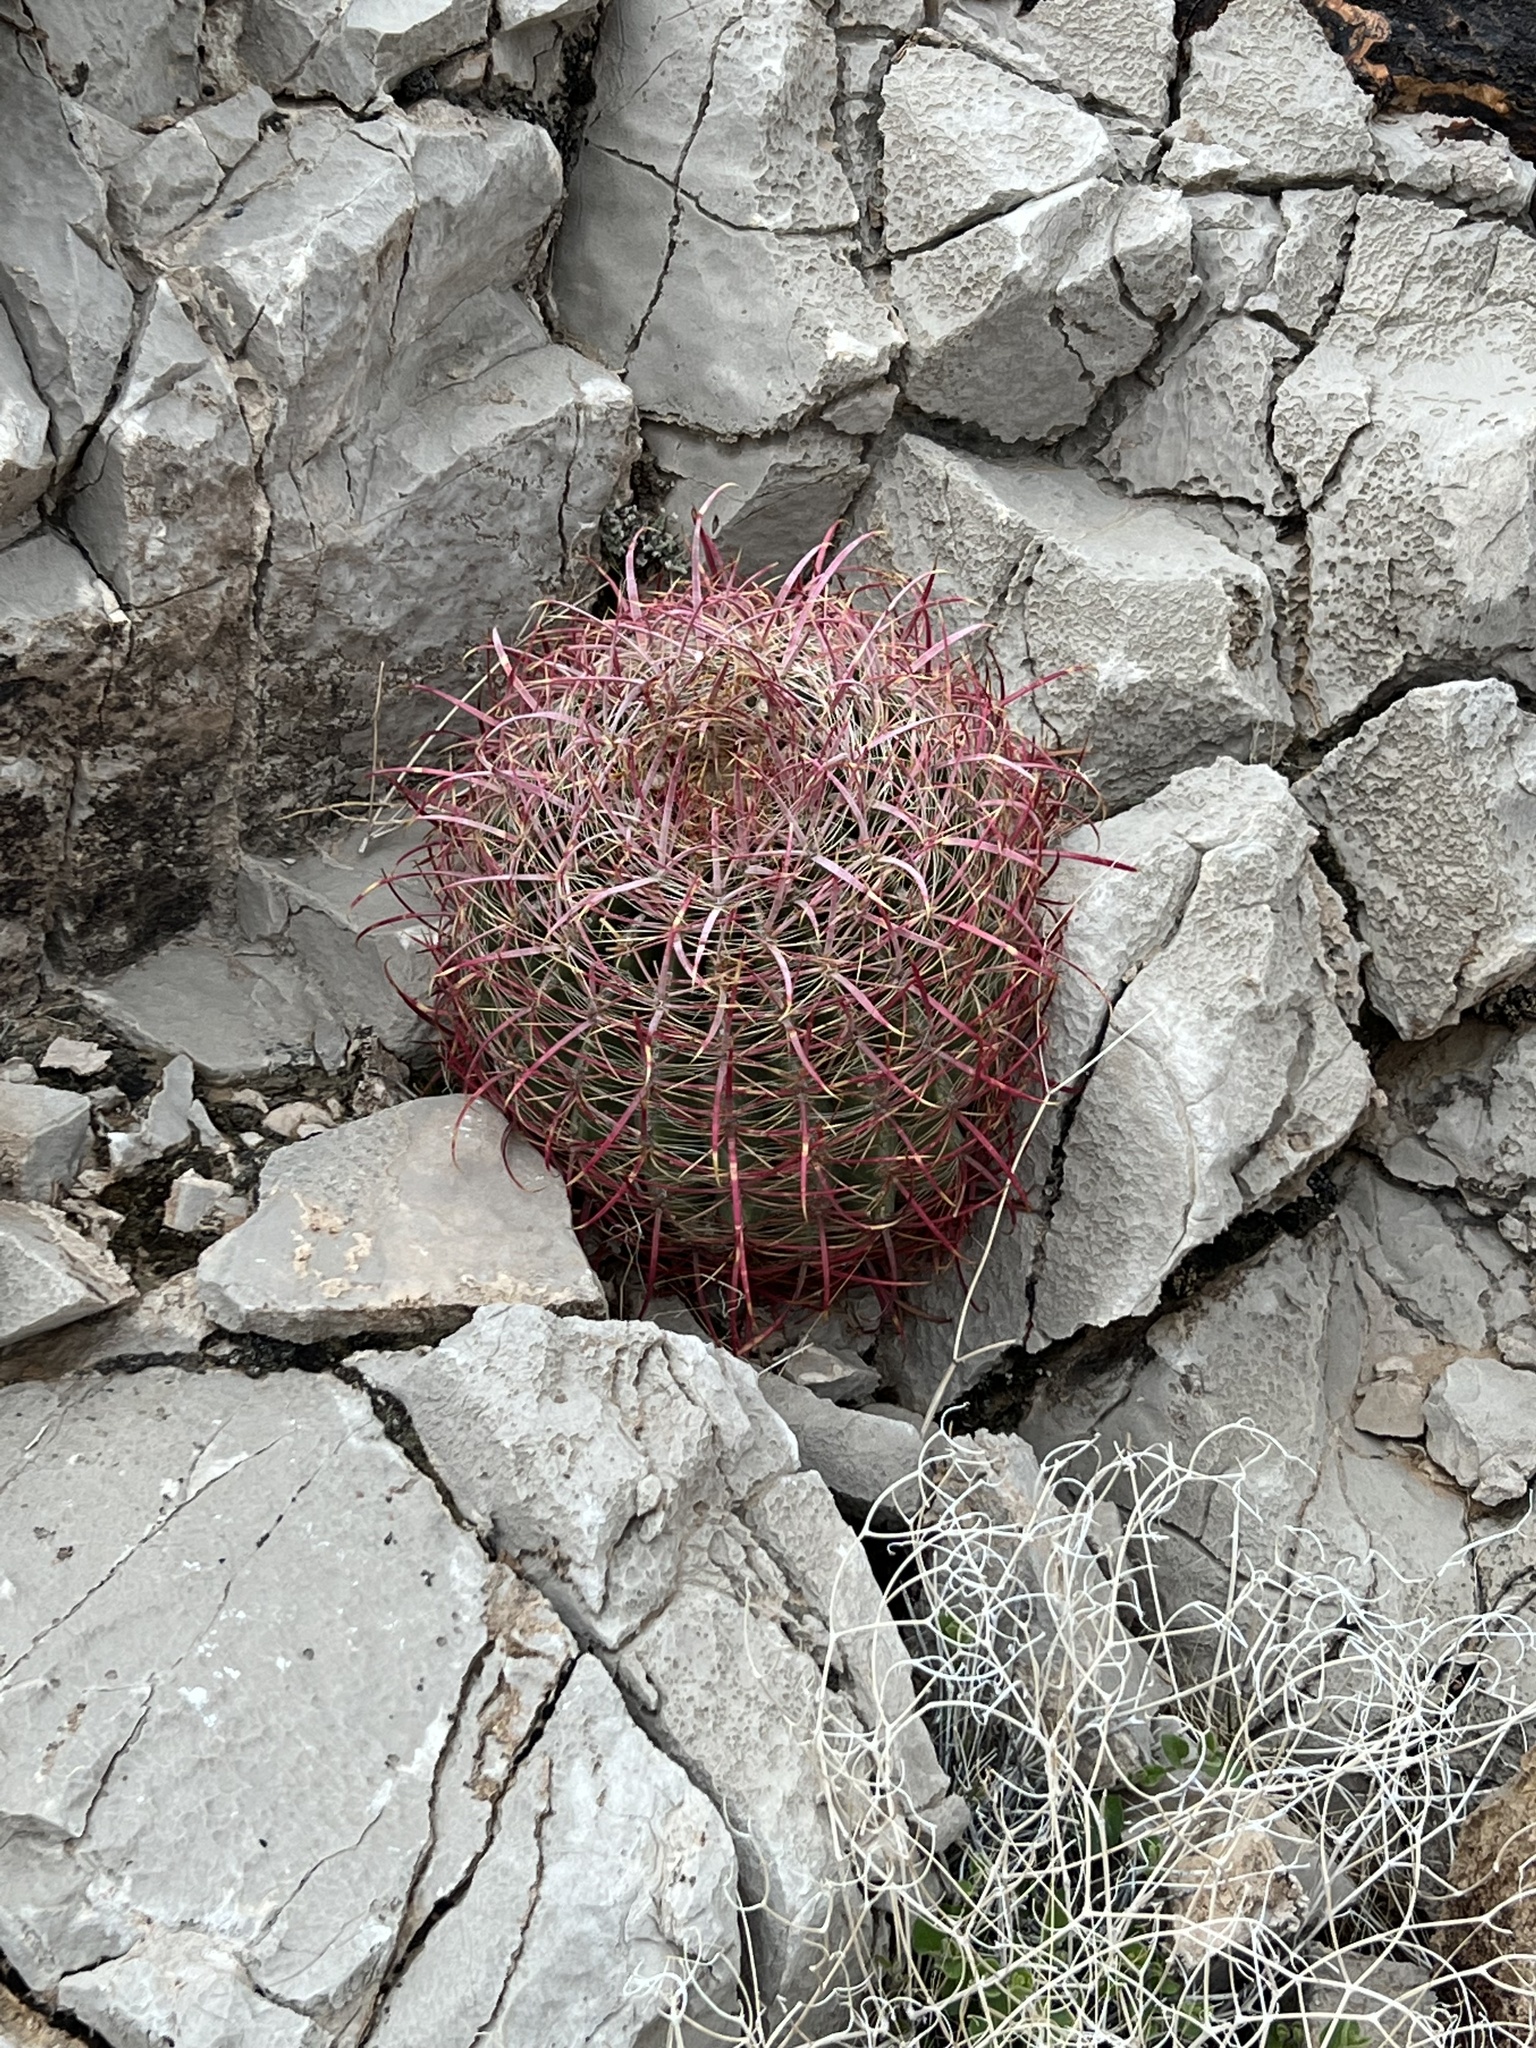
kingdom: Plantae
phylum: Tracheophyta
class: Magnoliopsida
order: Caryophyllales
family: Cactaceae
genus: Ferocactus
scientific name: Ferocactus cylindraceus
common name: California barrel cactus
